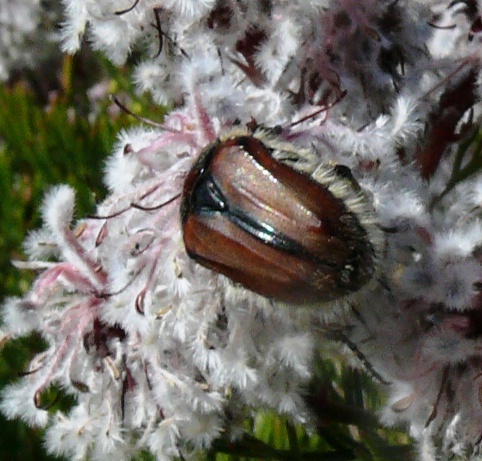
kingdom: Animalia
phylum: Arthropoda
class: Insecta
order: Coleoptera
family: Scarabaeidae
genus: Trichostetha
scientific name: Trichostetha capensis
